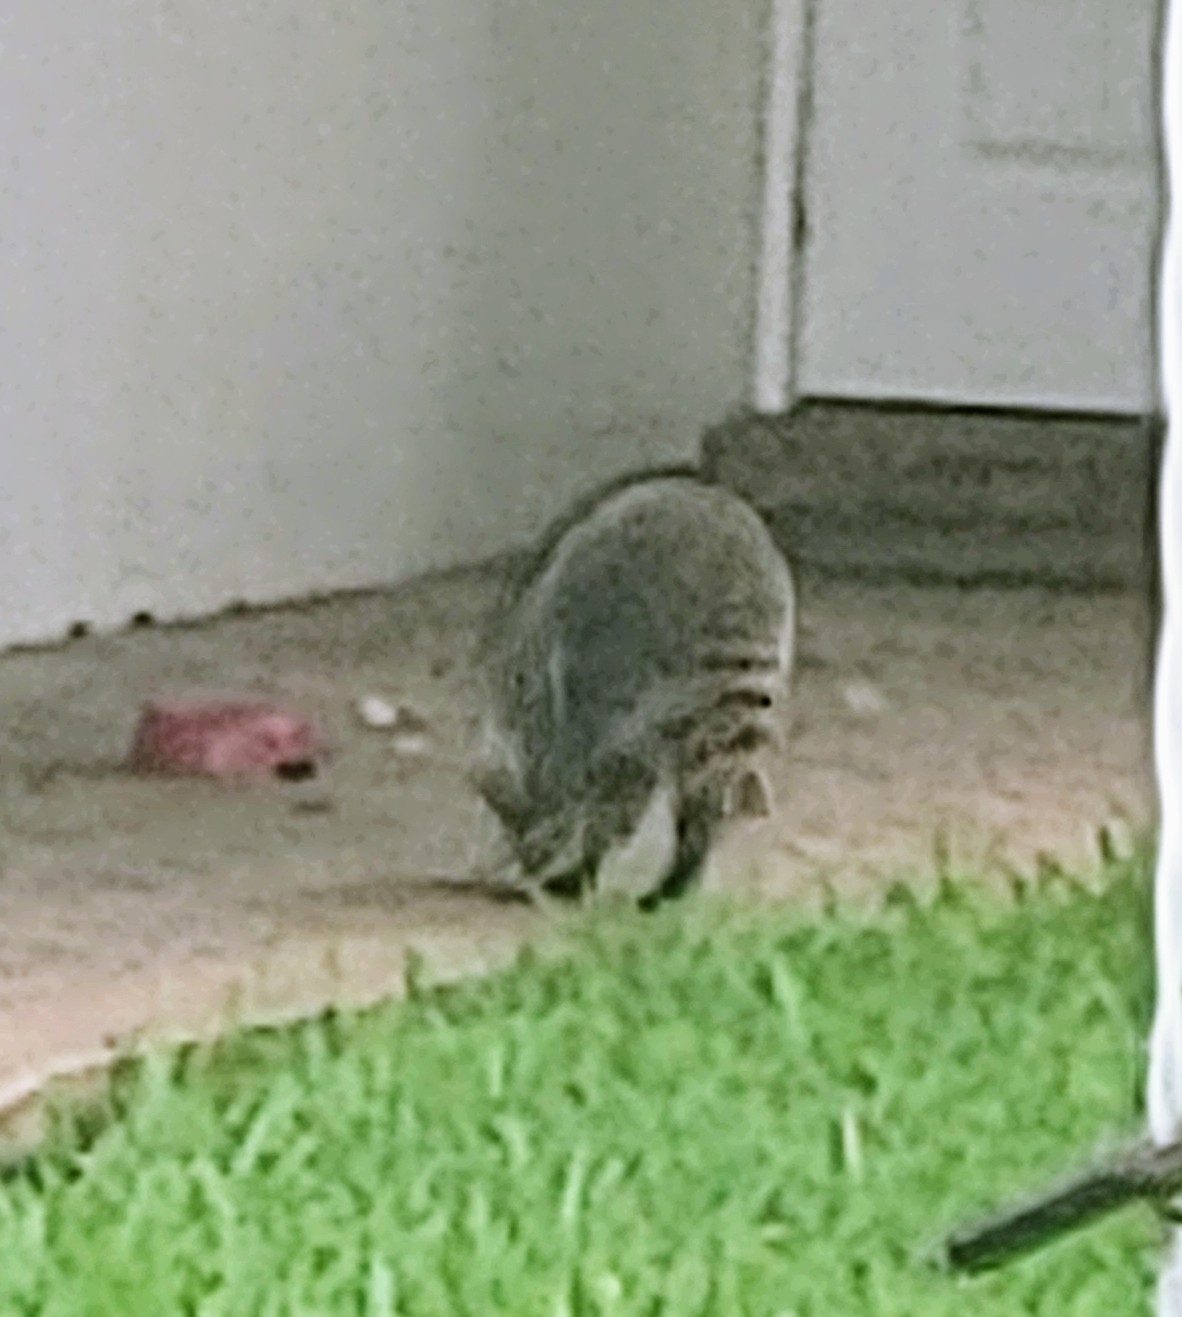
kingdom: Animalia
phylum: Chordata
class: Mammalia
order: Carnivora
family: Procyonidae
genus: Procyon
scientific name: Procyon lotor
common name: Raccoon
